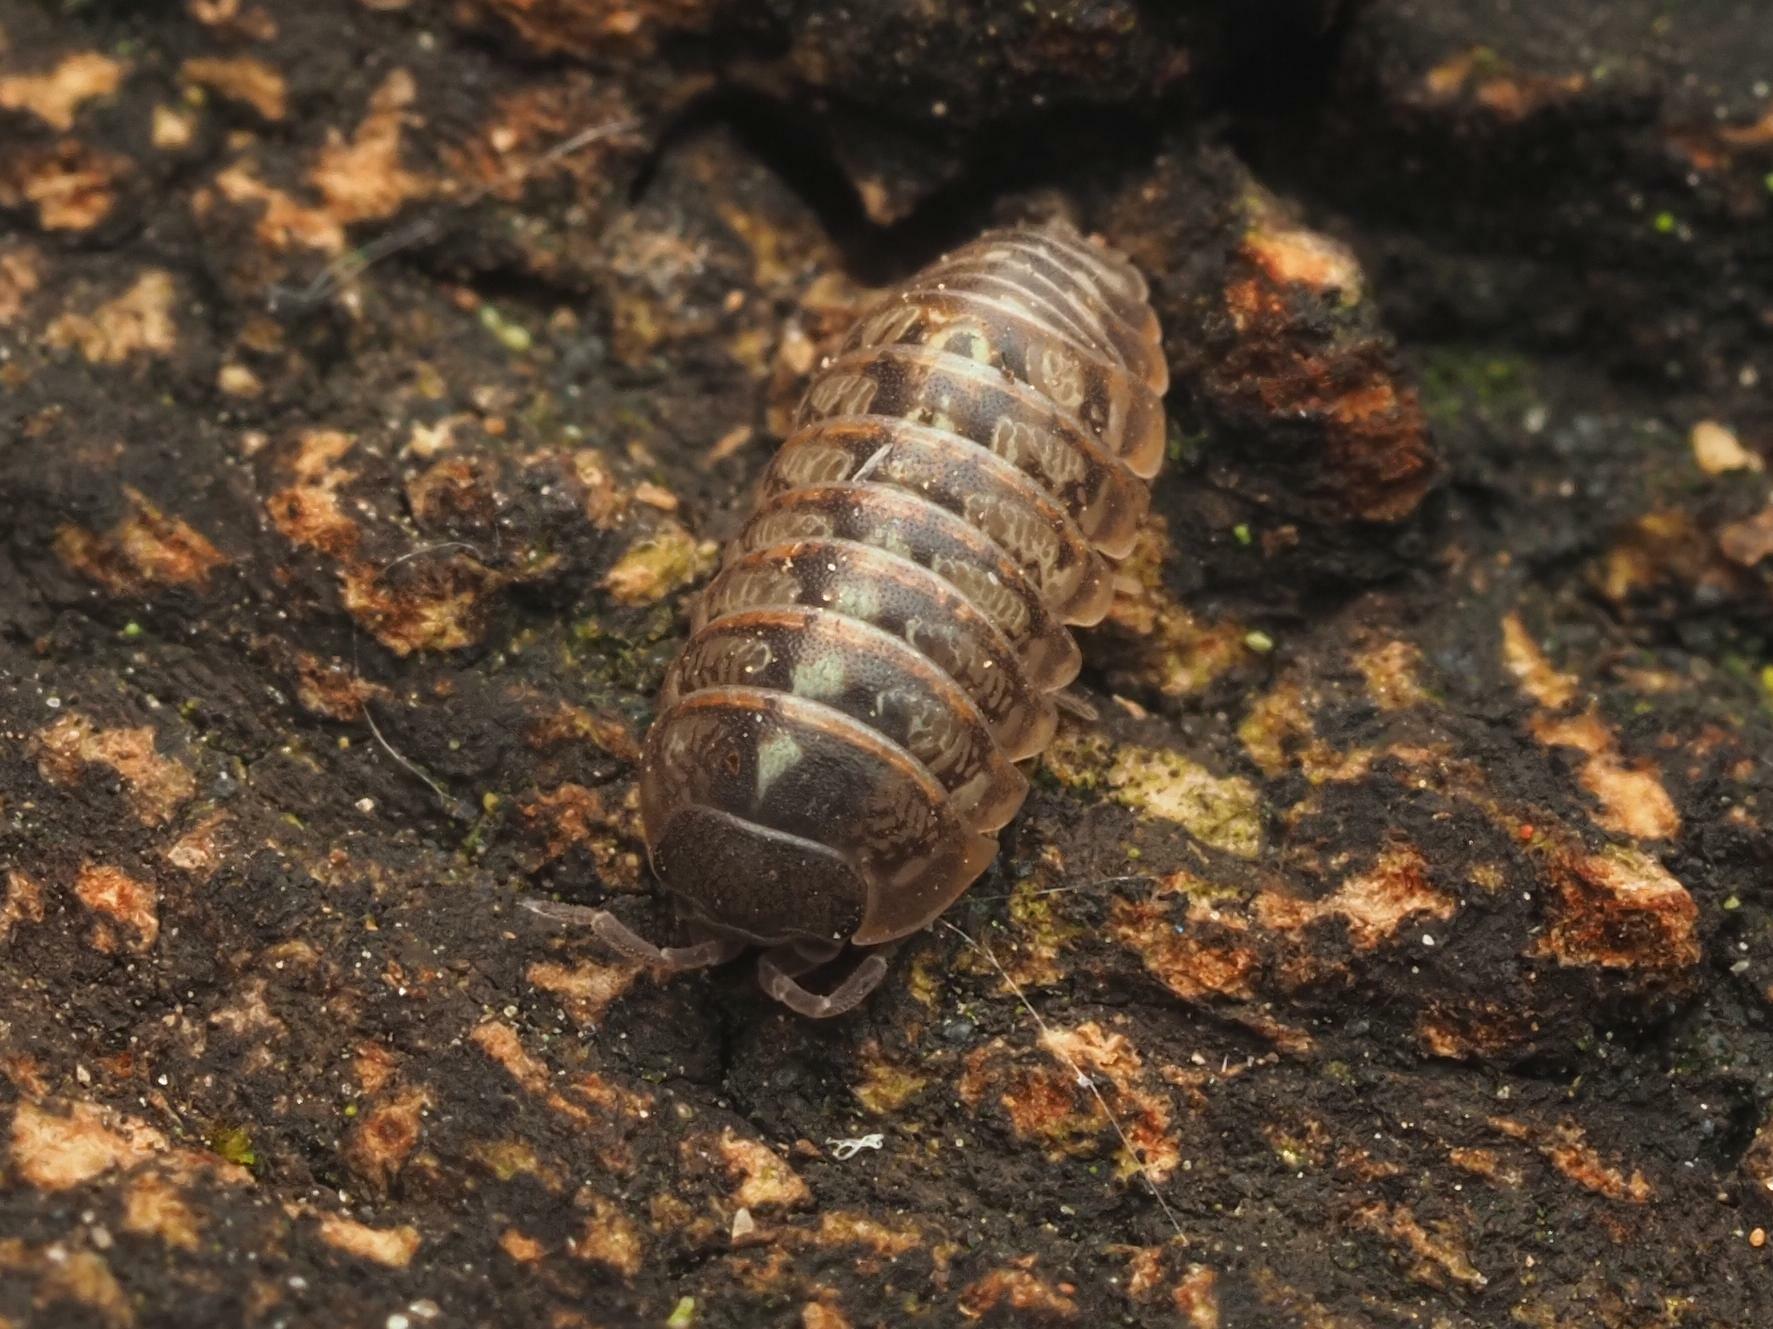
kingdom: Animalia
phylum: Arthropoda
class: Malacostraca
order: Isopoda
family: Armadillidiidae
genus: Armadillidium
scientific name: Armadillidium vulgare
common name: Common pill woodlouse
